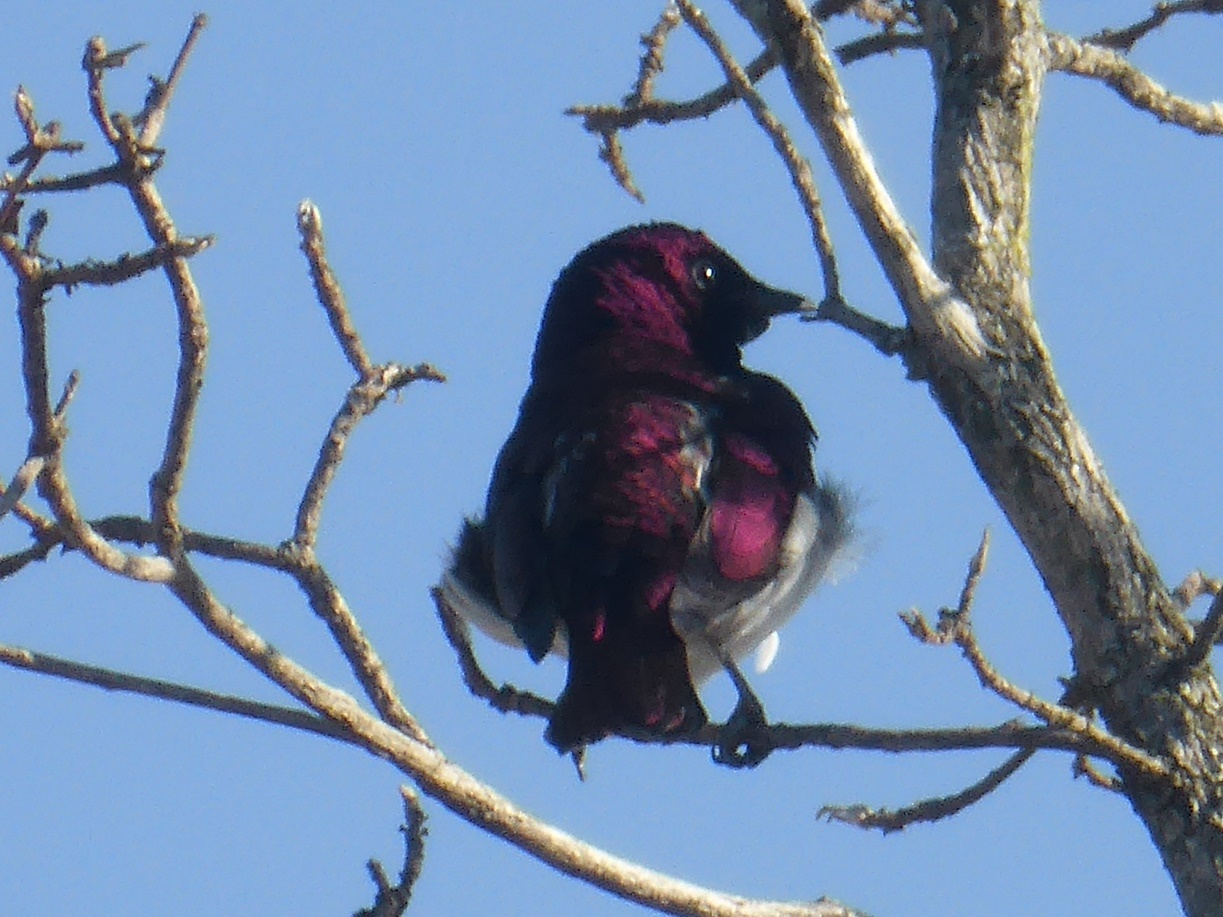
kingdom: Animalia
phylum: Chordata
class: Aves
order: Passeriformes
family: Sturnidae
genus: Cinnyricinclus
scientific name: Cinnyricinclus leucogaster
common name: Violet-backed starling
